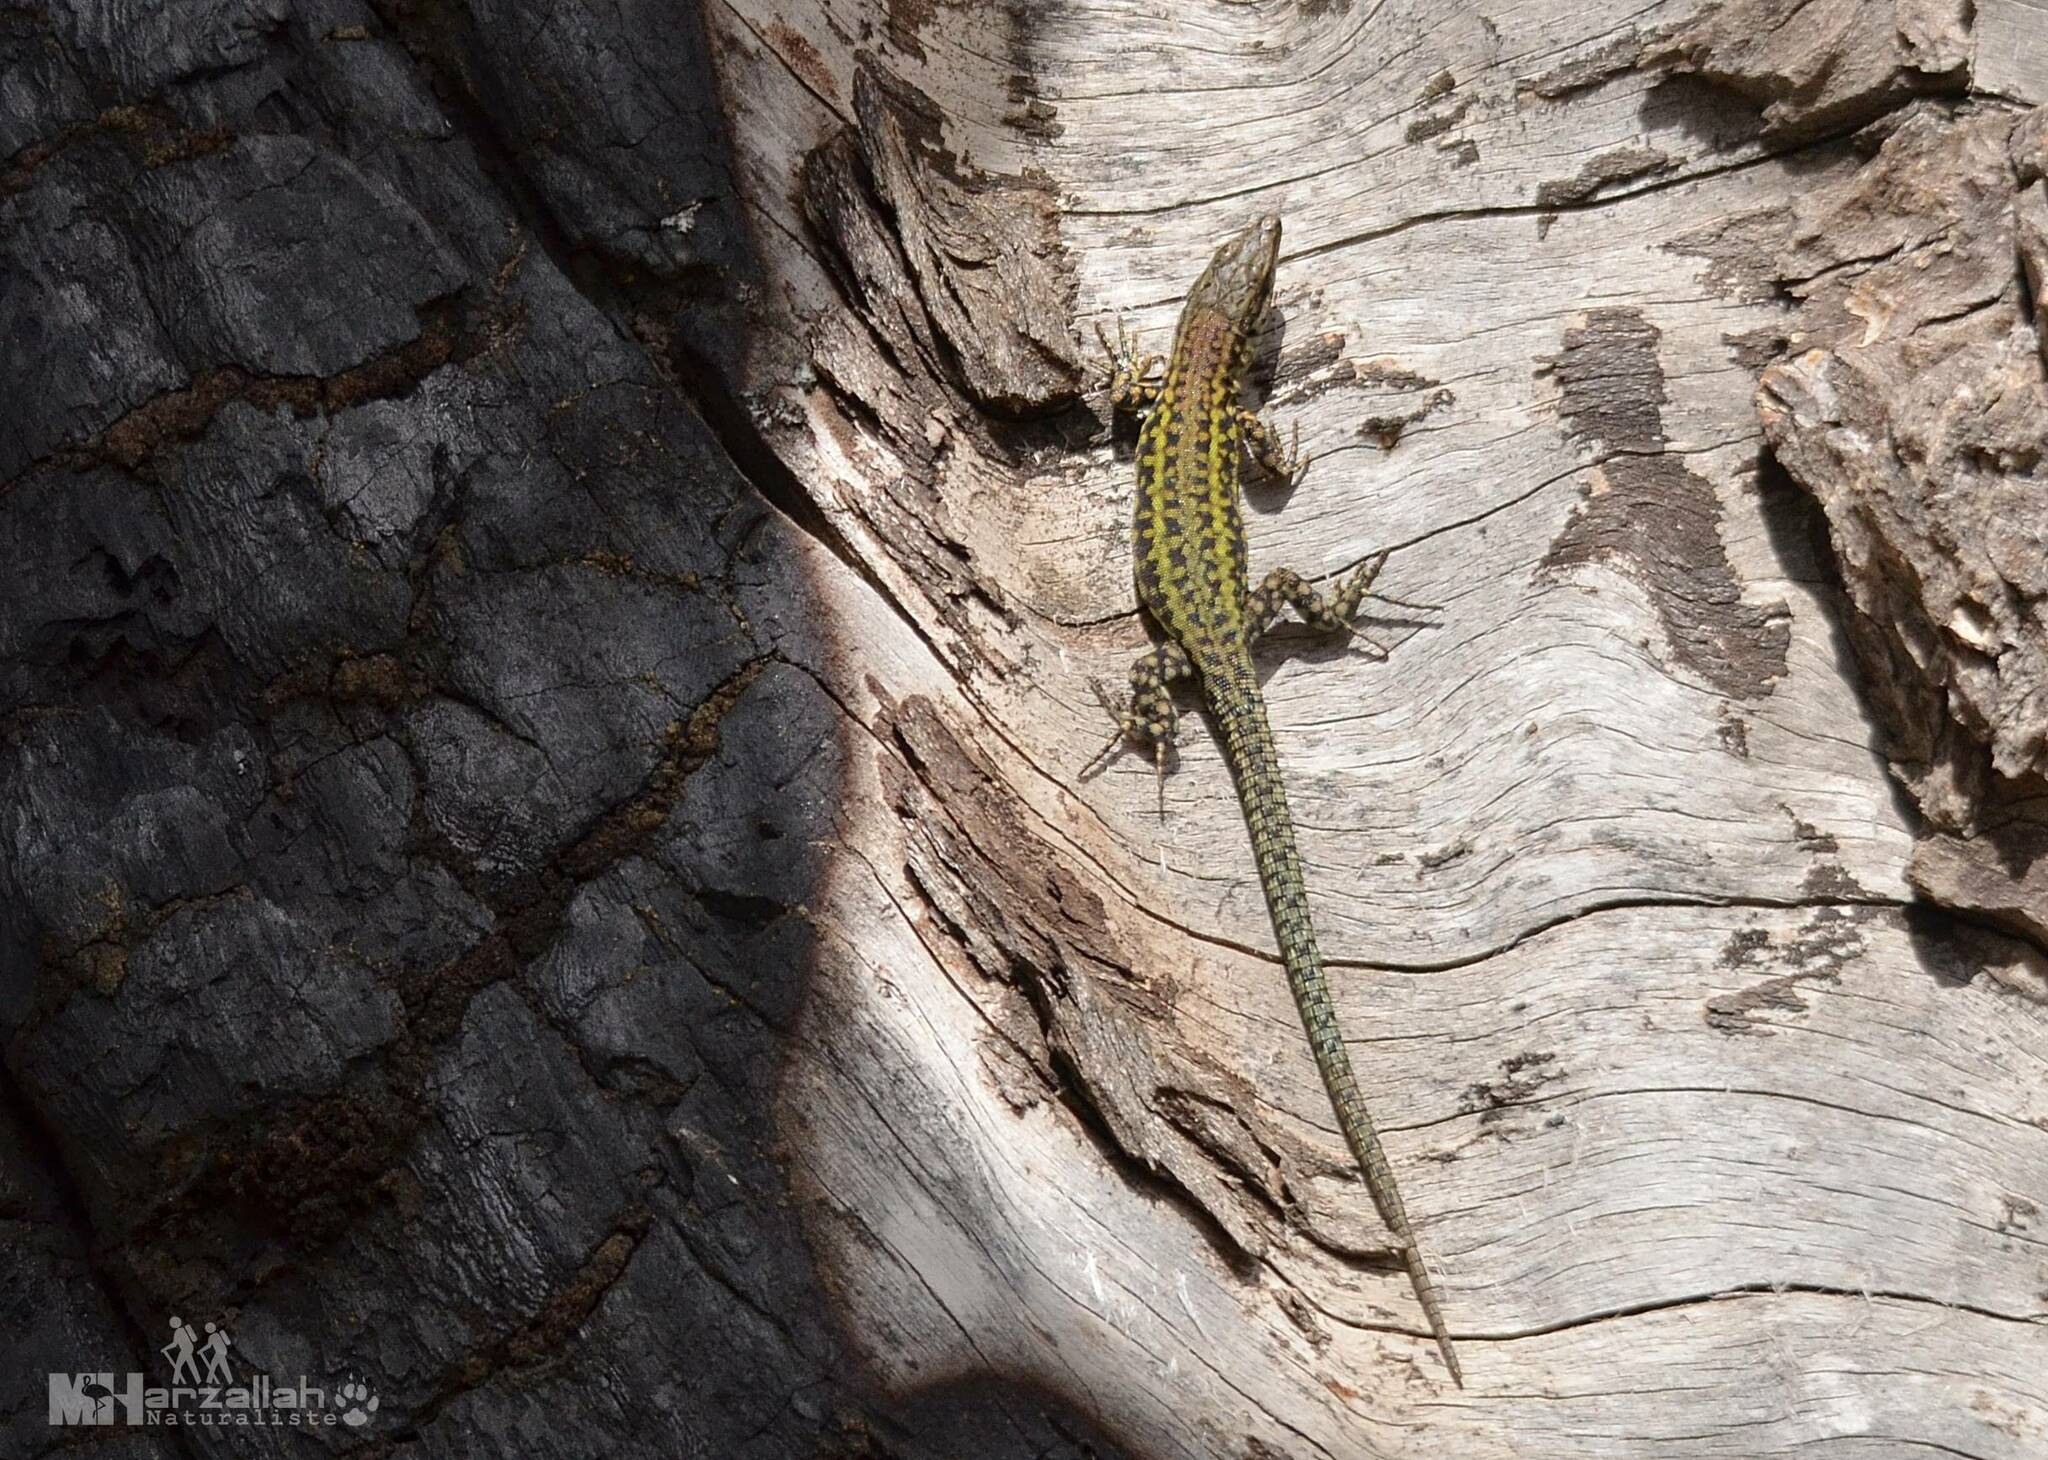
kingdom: Animalia
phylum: Chordata
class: Squamata
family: Lacertidae
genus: Podarcis
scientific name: Podarcis vaucheri
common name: Vaucher's wall lizard
